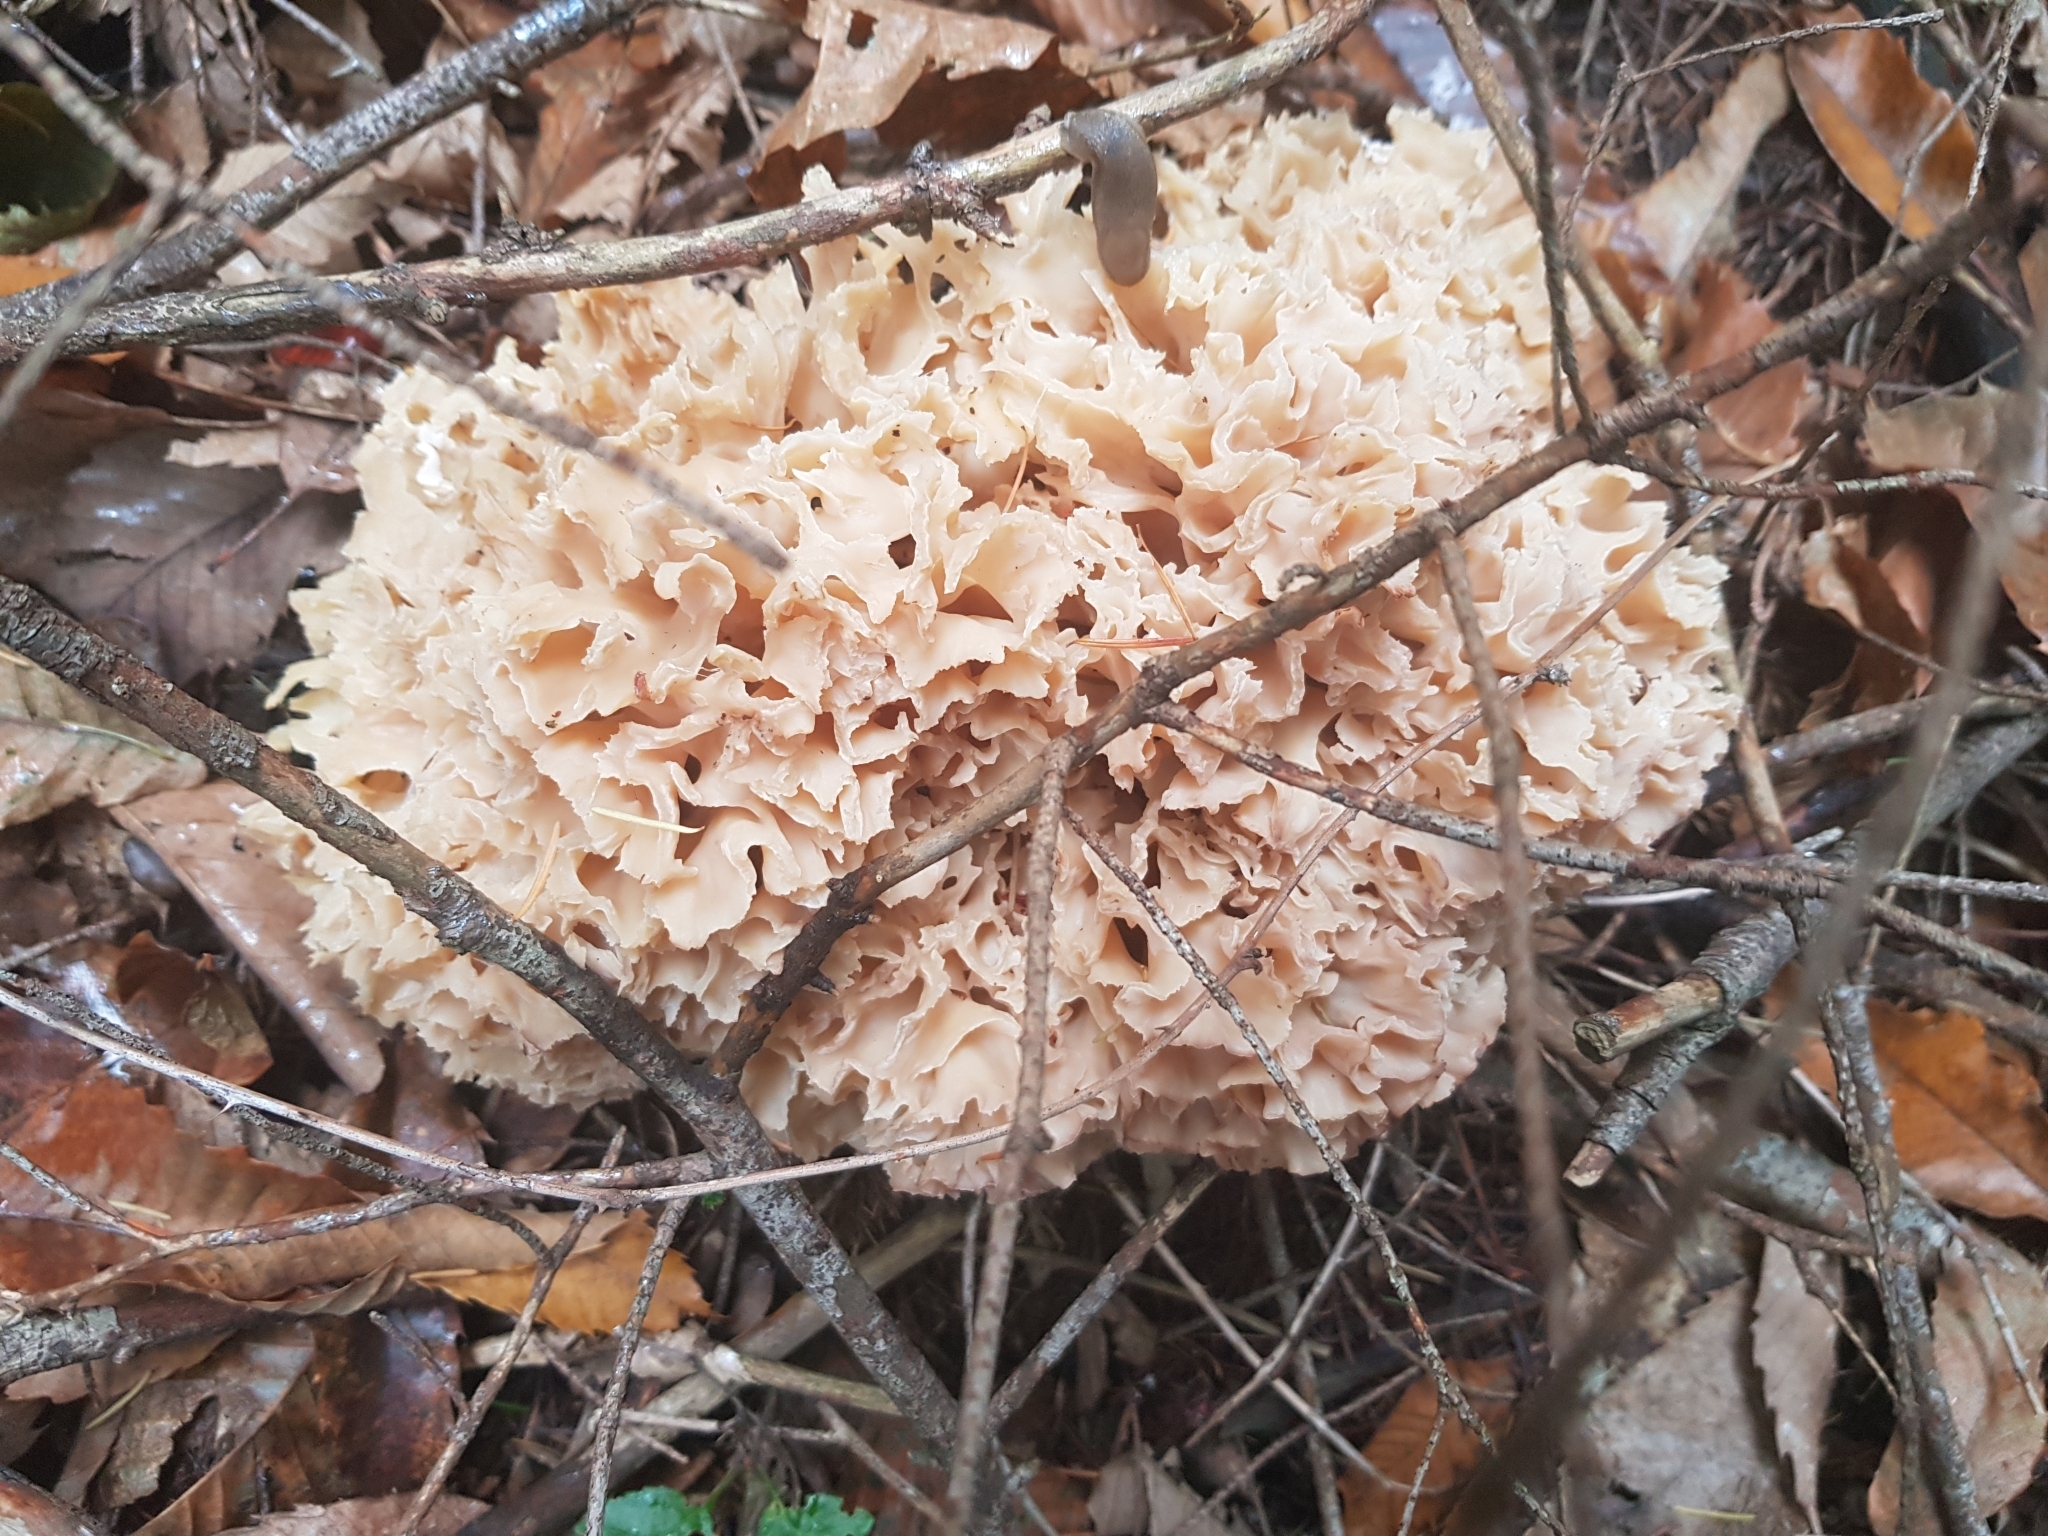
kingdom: Fungi
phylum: Basidiomycota
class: Agaricomycetes
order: Polyporales
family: Sparassidaceae
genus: Sparassis
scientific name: Sparassis crispa
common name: Brain fungus
